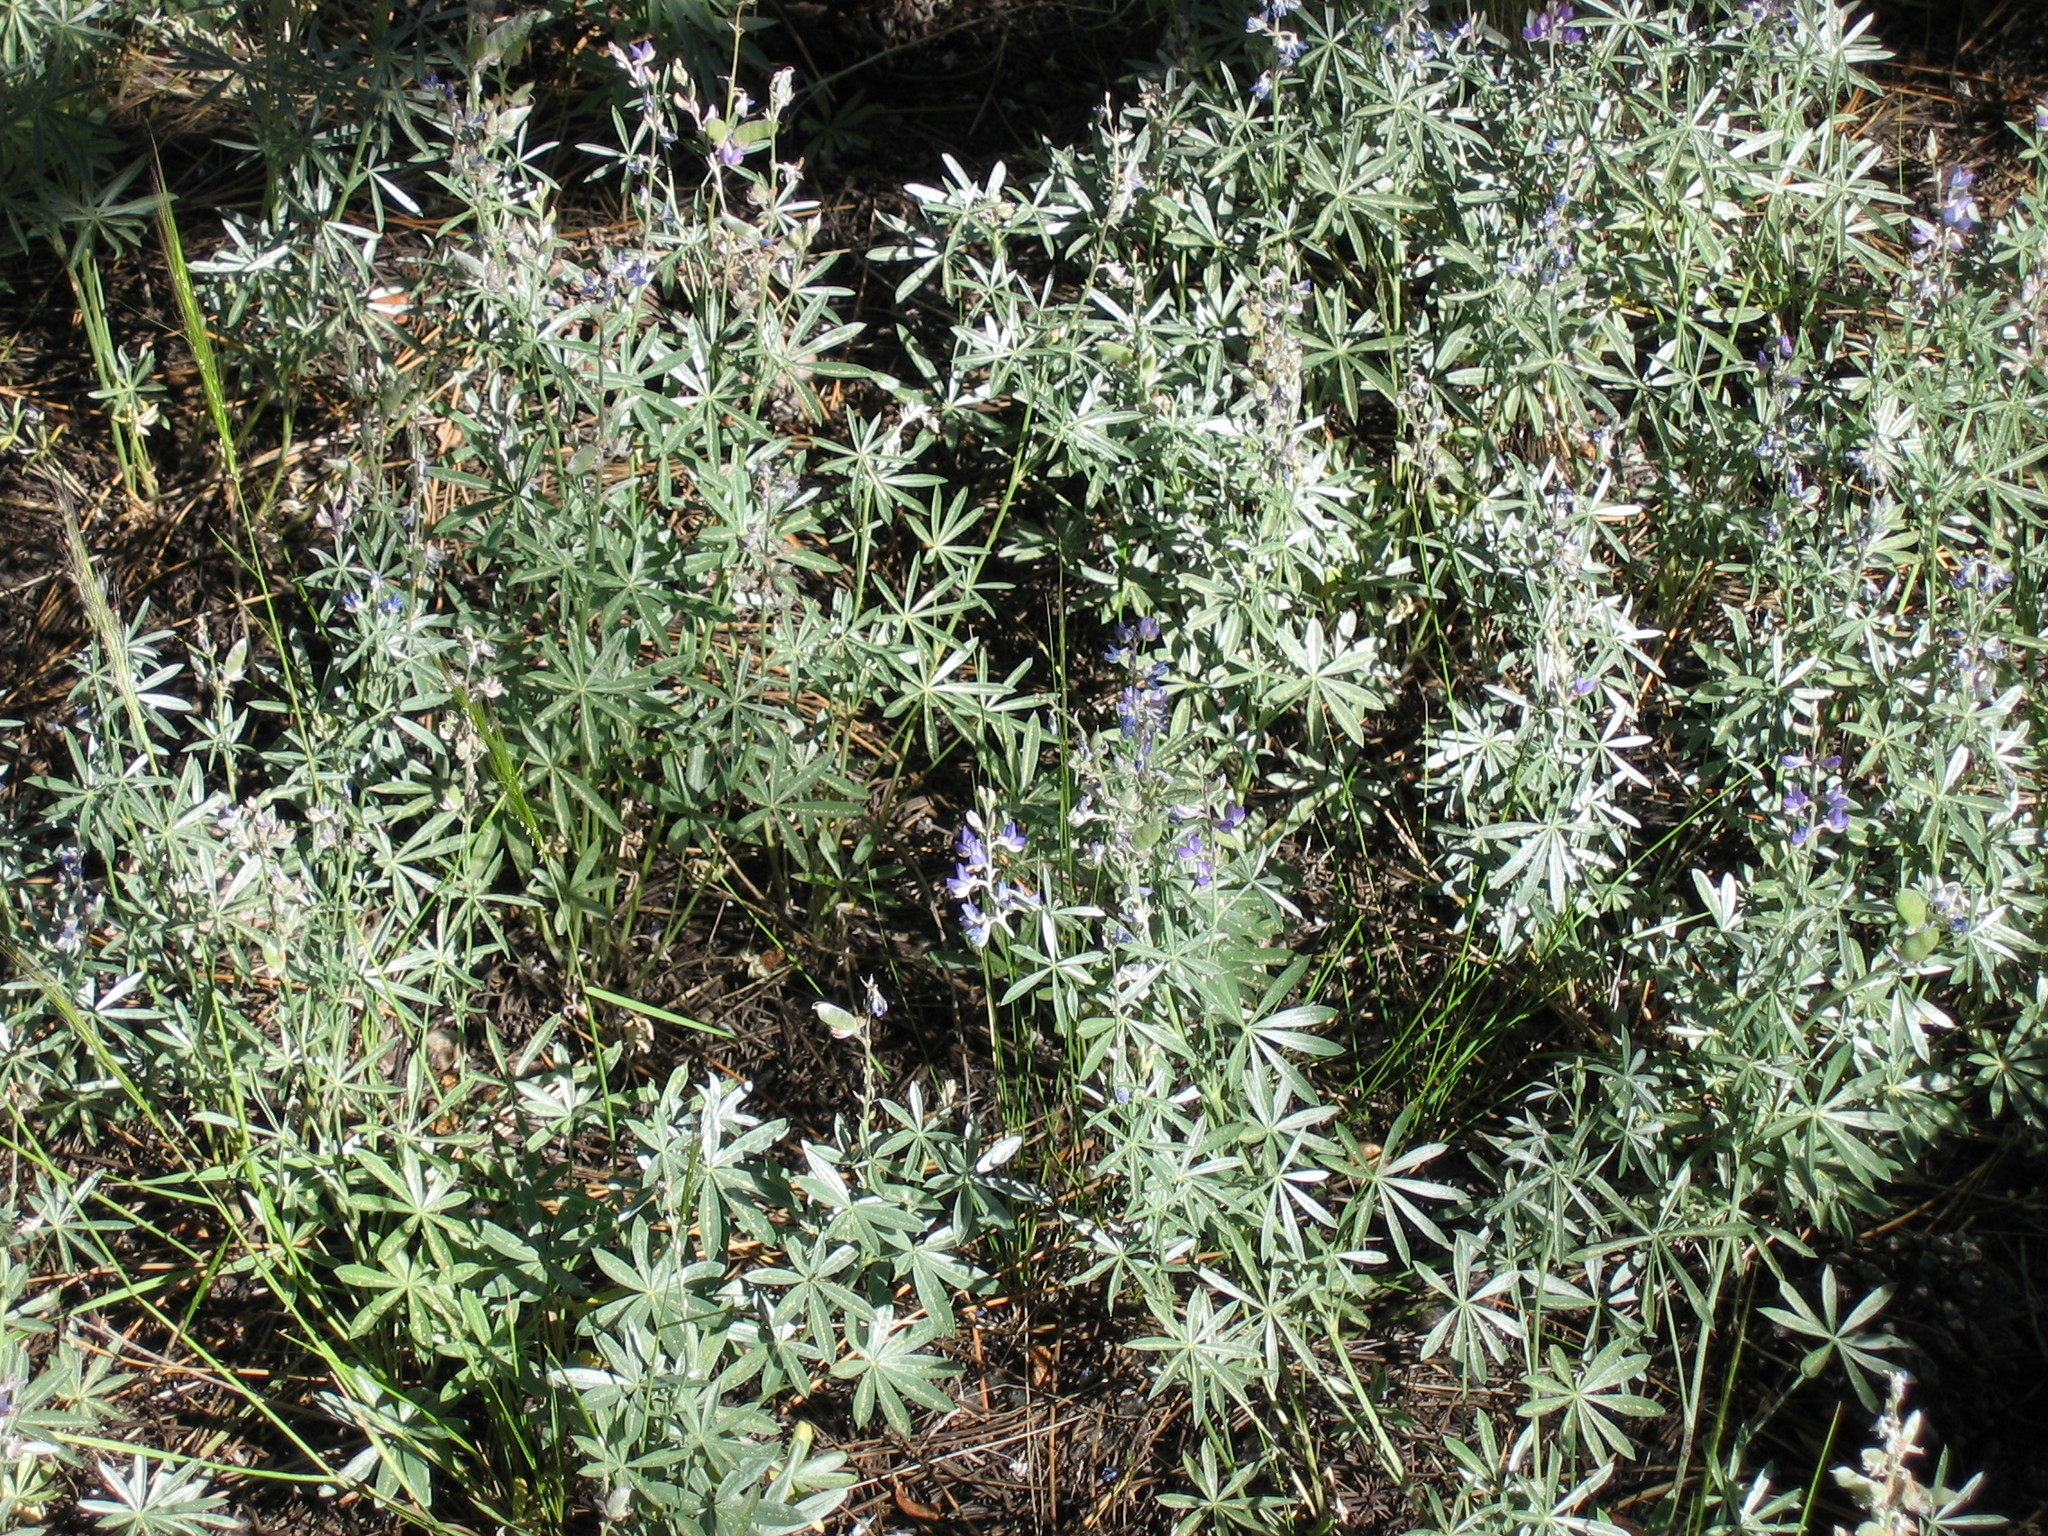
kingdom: Plantae
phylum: Tracheophyta
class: Magnoliopsida
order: Fabales
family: Fabaceae
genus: Lupinus
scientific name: Lupinus argenteus
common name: Silvery lupine
